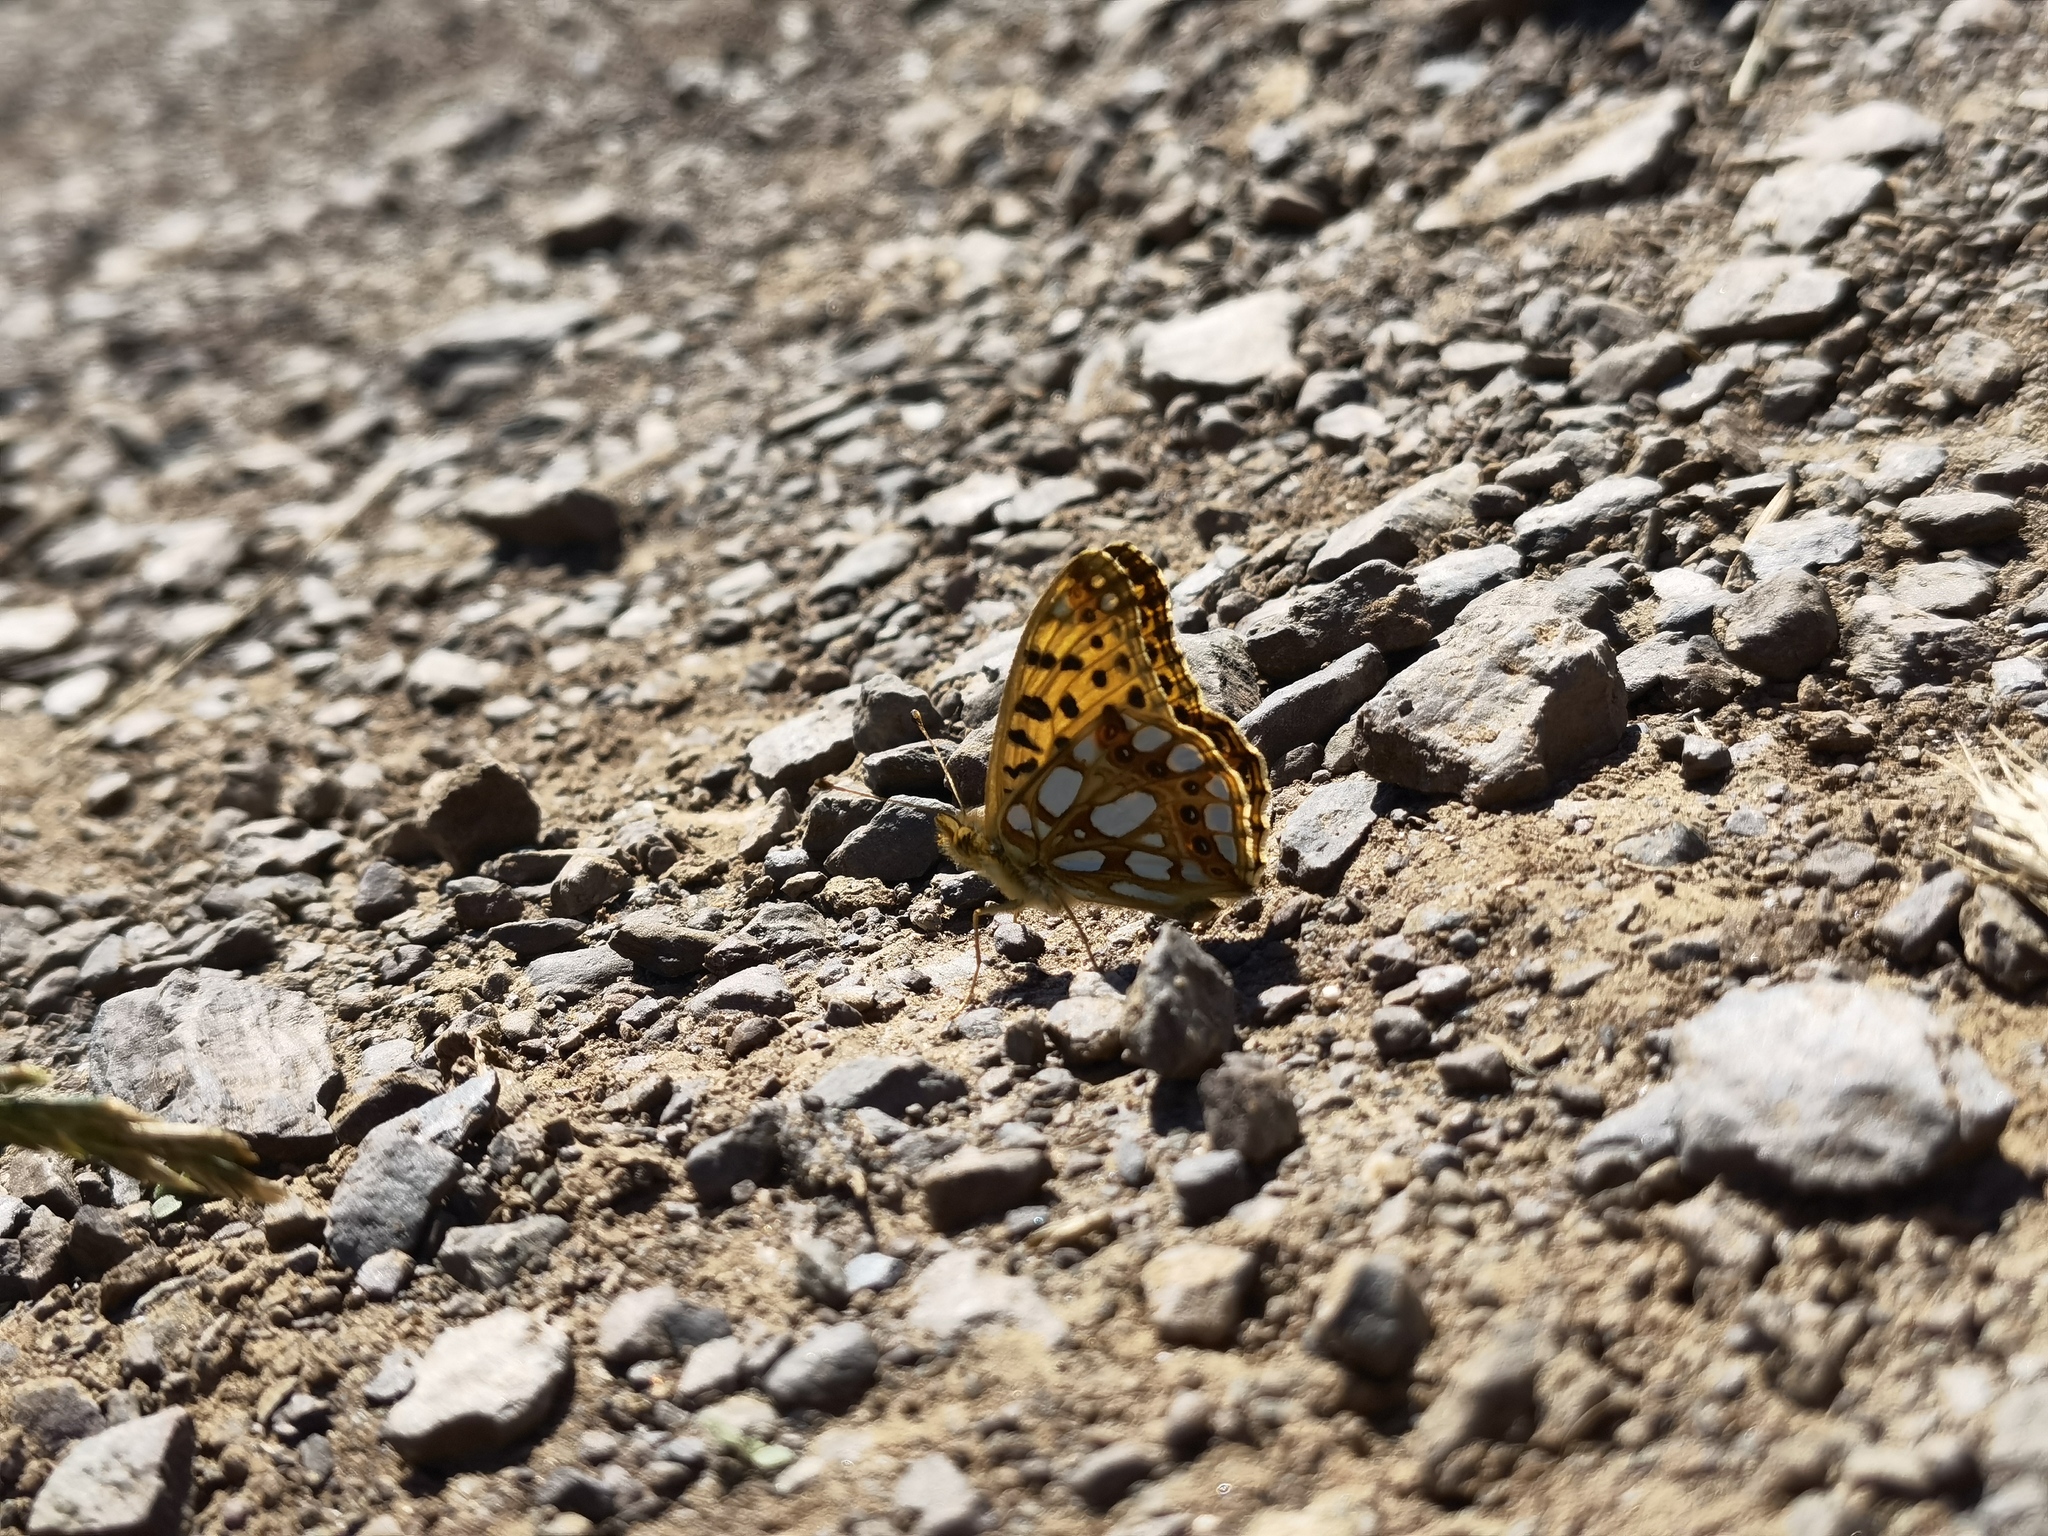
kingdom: Animalia
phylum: Arthropoda
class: Insecta
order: Lepidoptera
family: Nymphalidae
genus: Issoria
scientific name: Issoria lathonia
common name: Queen of spain fritillary
